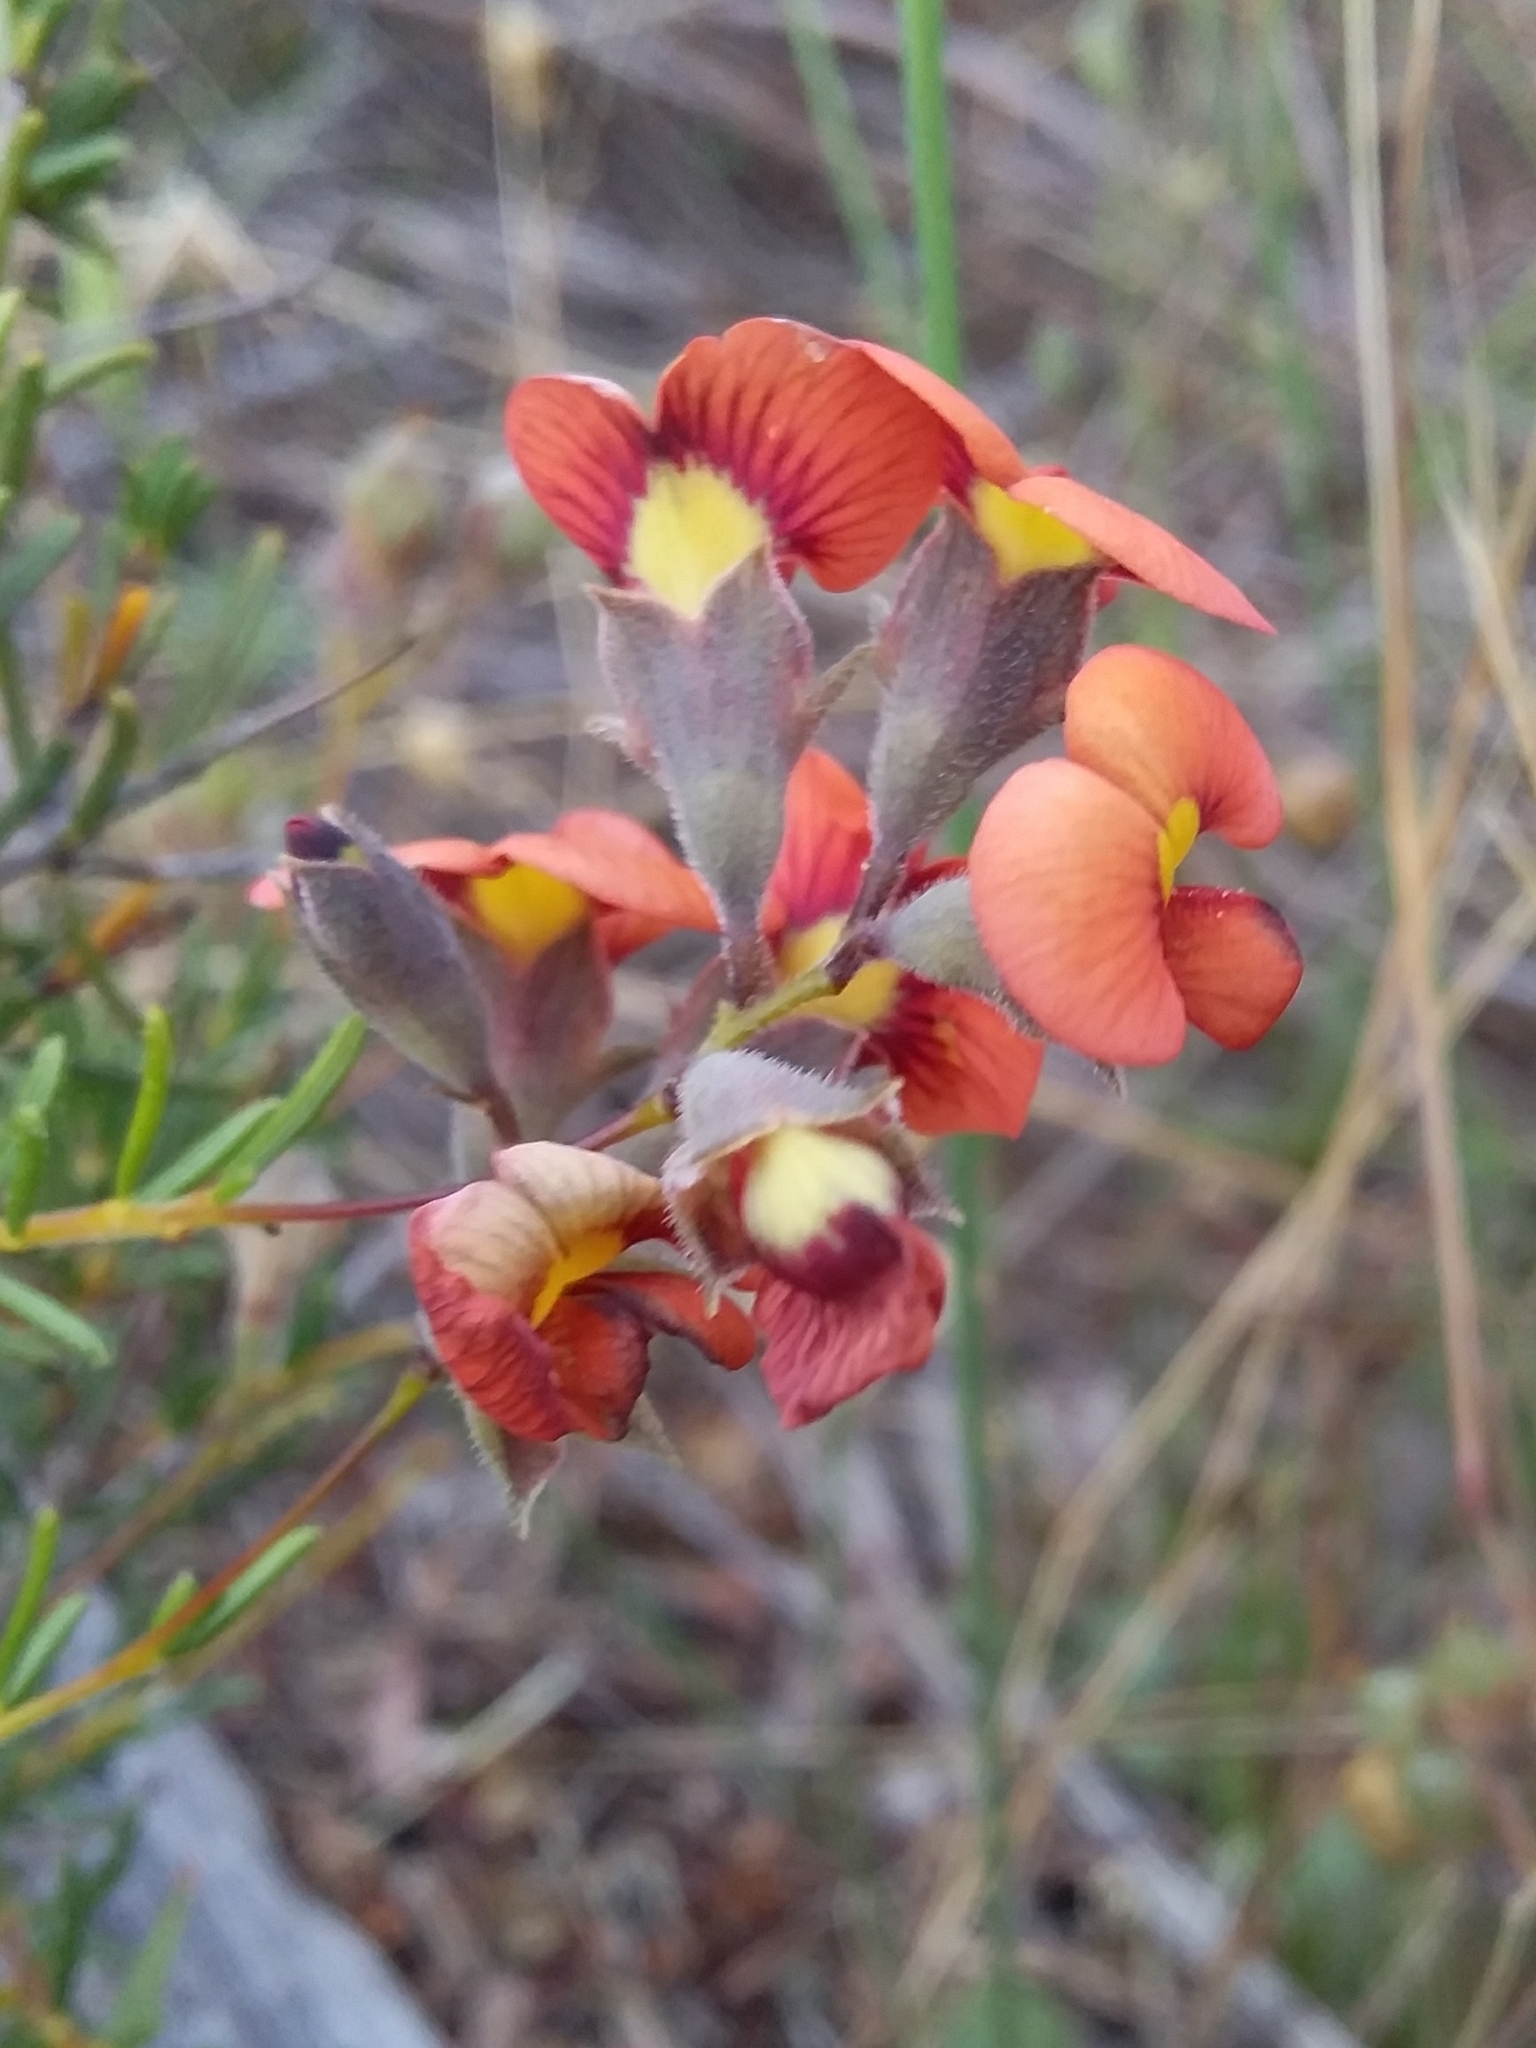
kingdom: Plantae
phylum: Tracheophyta
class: Magnoliopsida
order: Fabales
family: Fabaceae
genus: Dillwynia
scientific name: Dillwynia hispida
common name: Red parrot-pea
